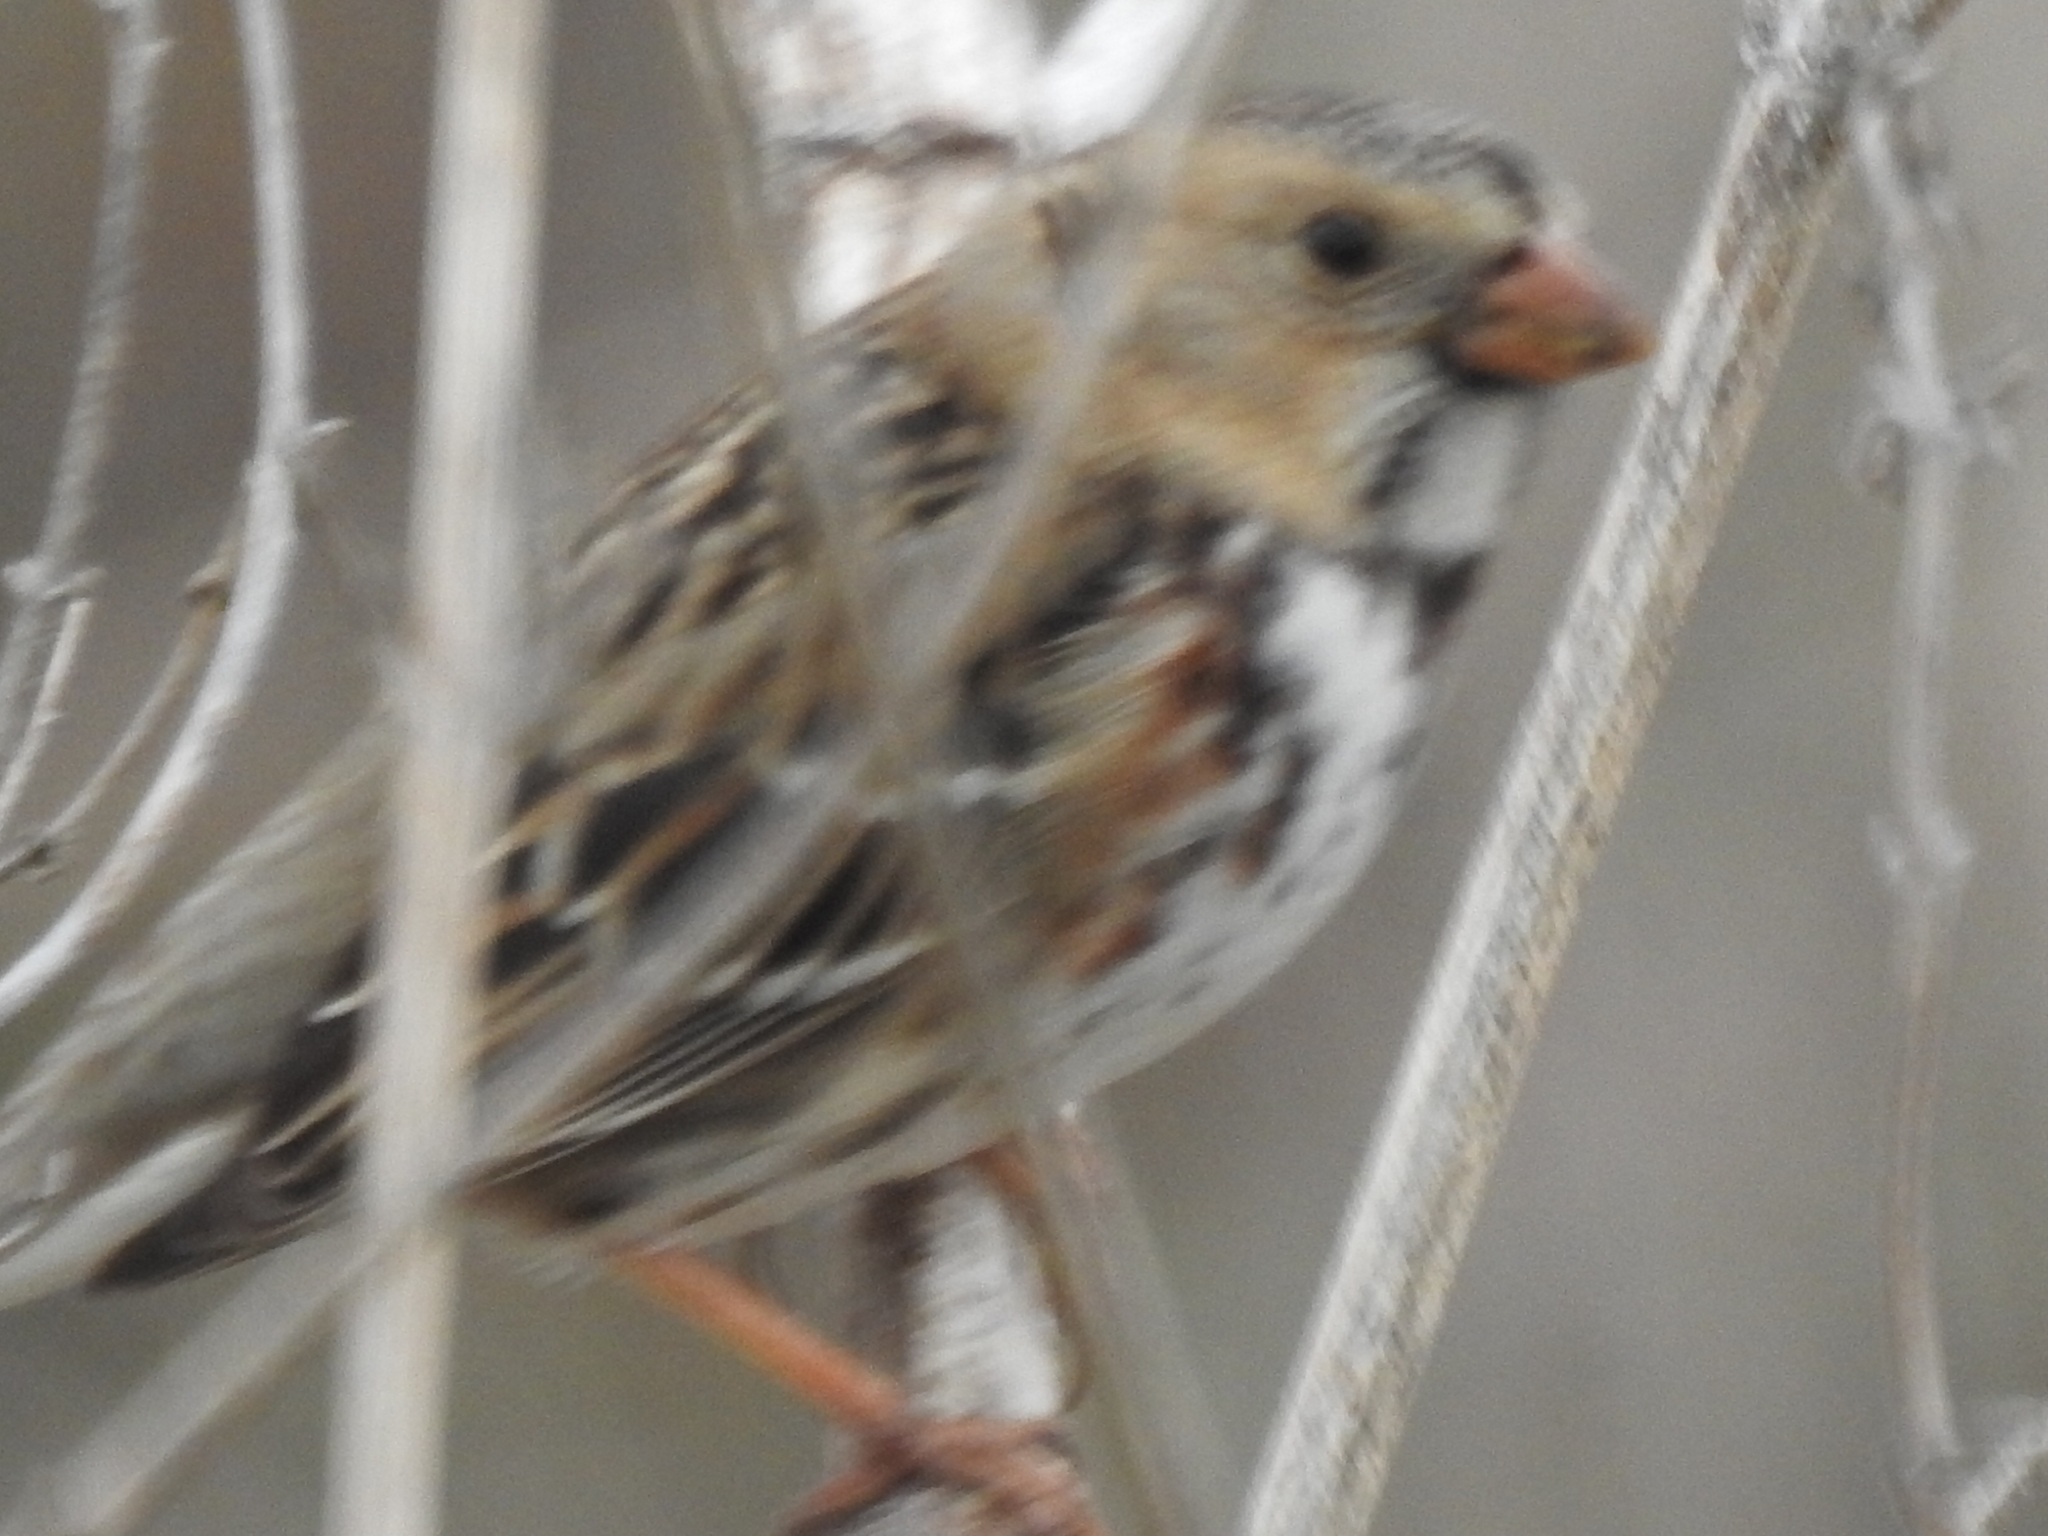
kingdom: Animalia
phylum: Chordata
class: Aves
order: Passeriformes
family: Passerellidae
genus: Zonotrichia
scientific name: Zonotrichia querula
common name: Harris's sparrow
